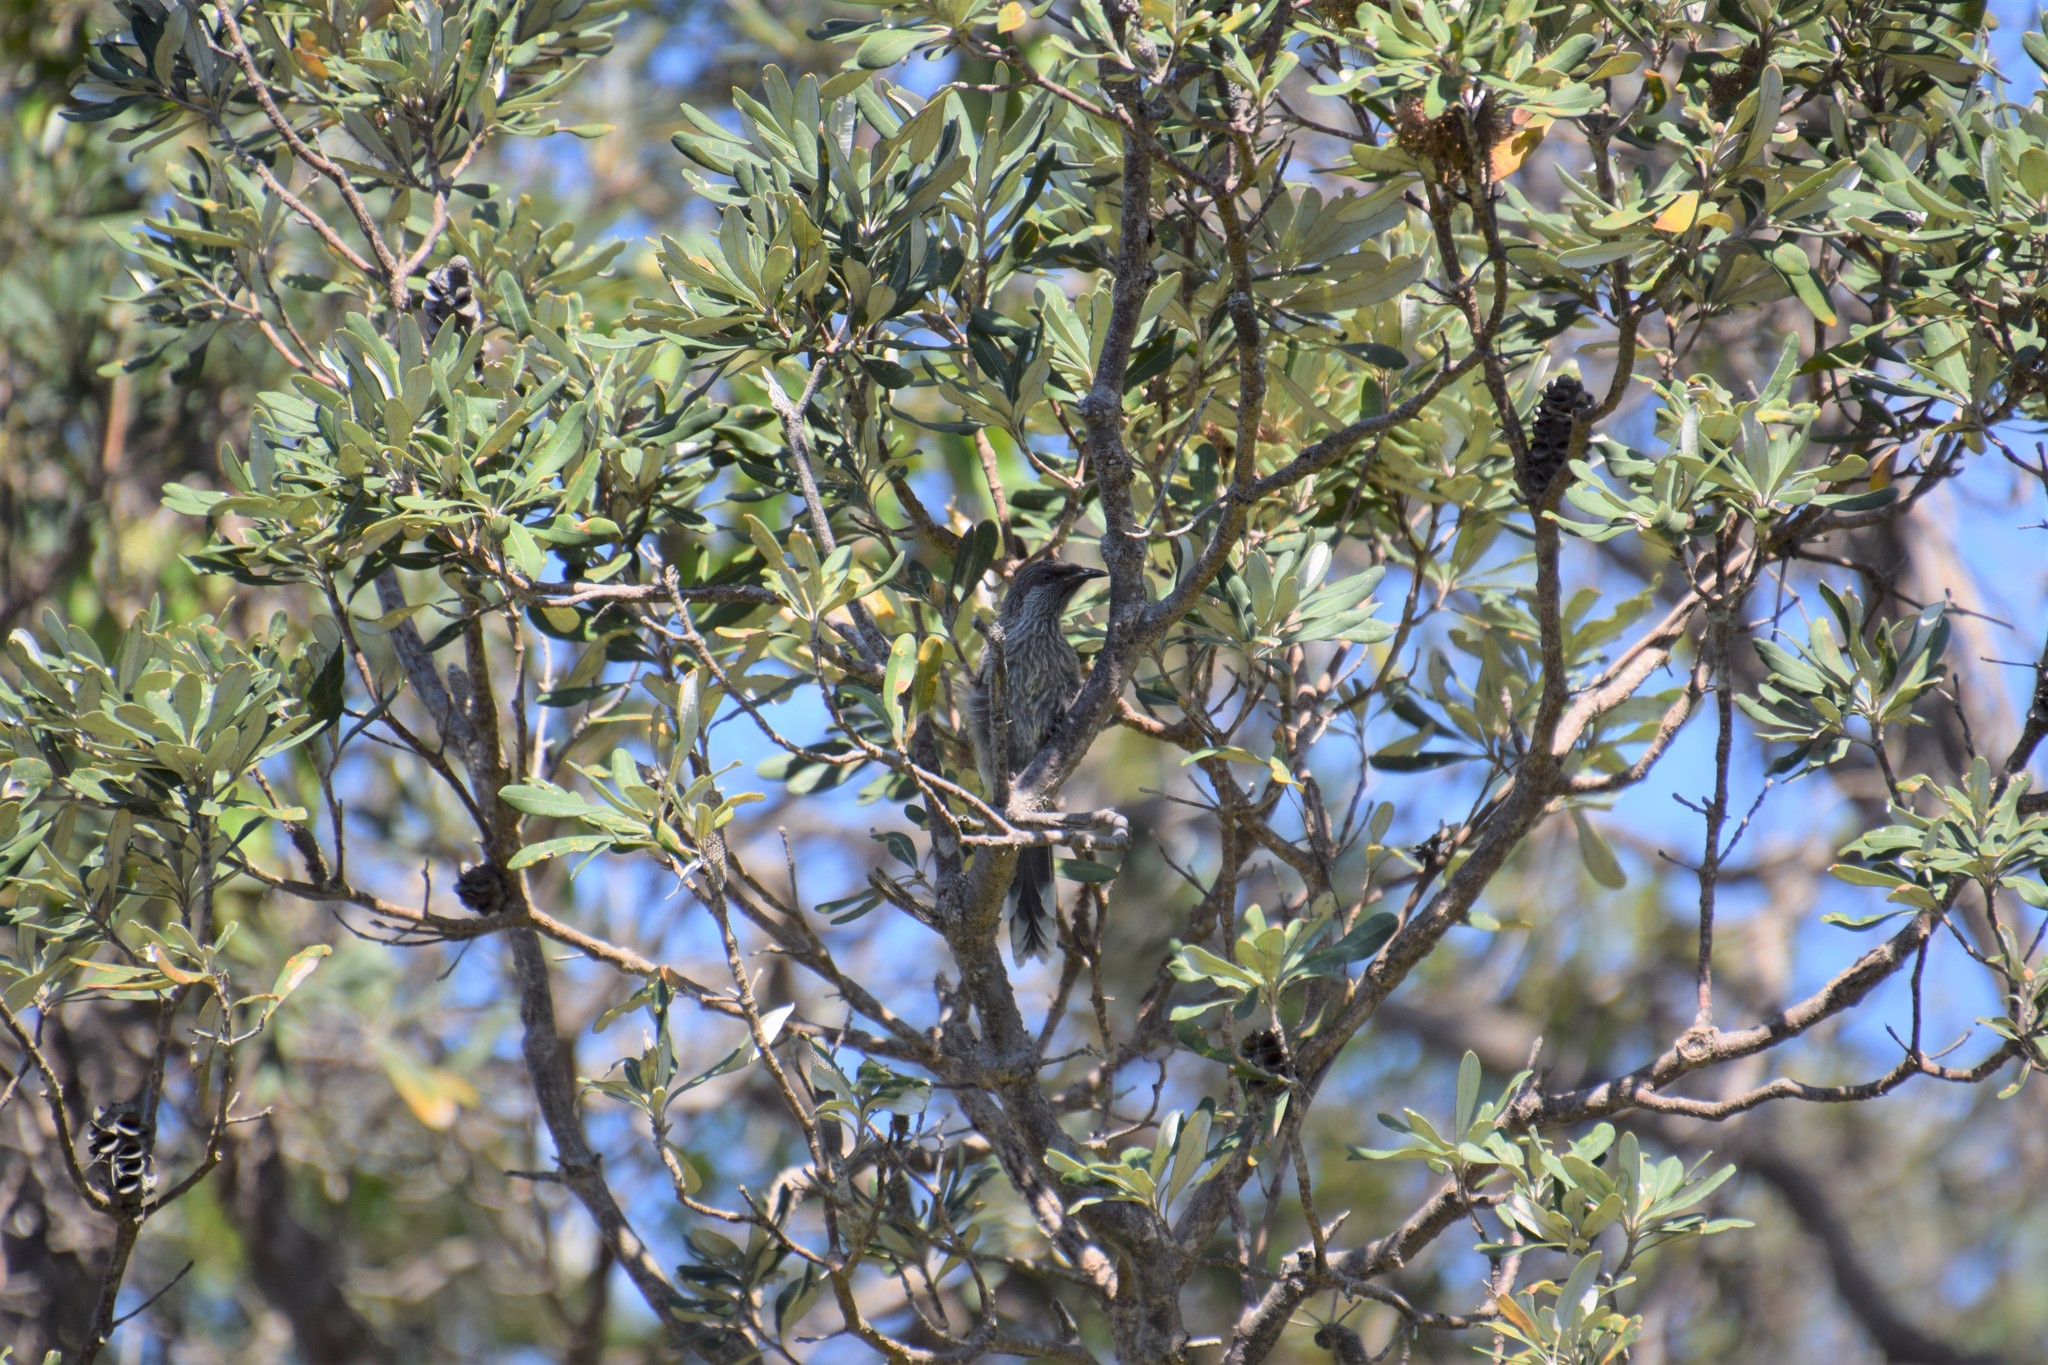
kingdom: Animalia
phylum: Chordata
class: Aves
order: Passeriformes
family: Meliphagidae
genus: Anthochaera
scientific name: Anthochaera chrysoptera
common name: Little wattlebird
